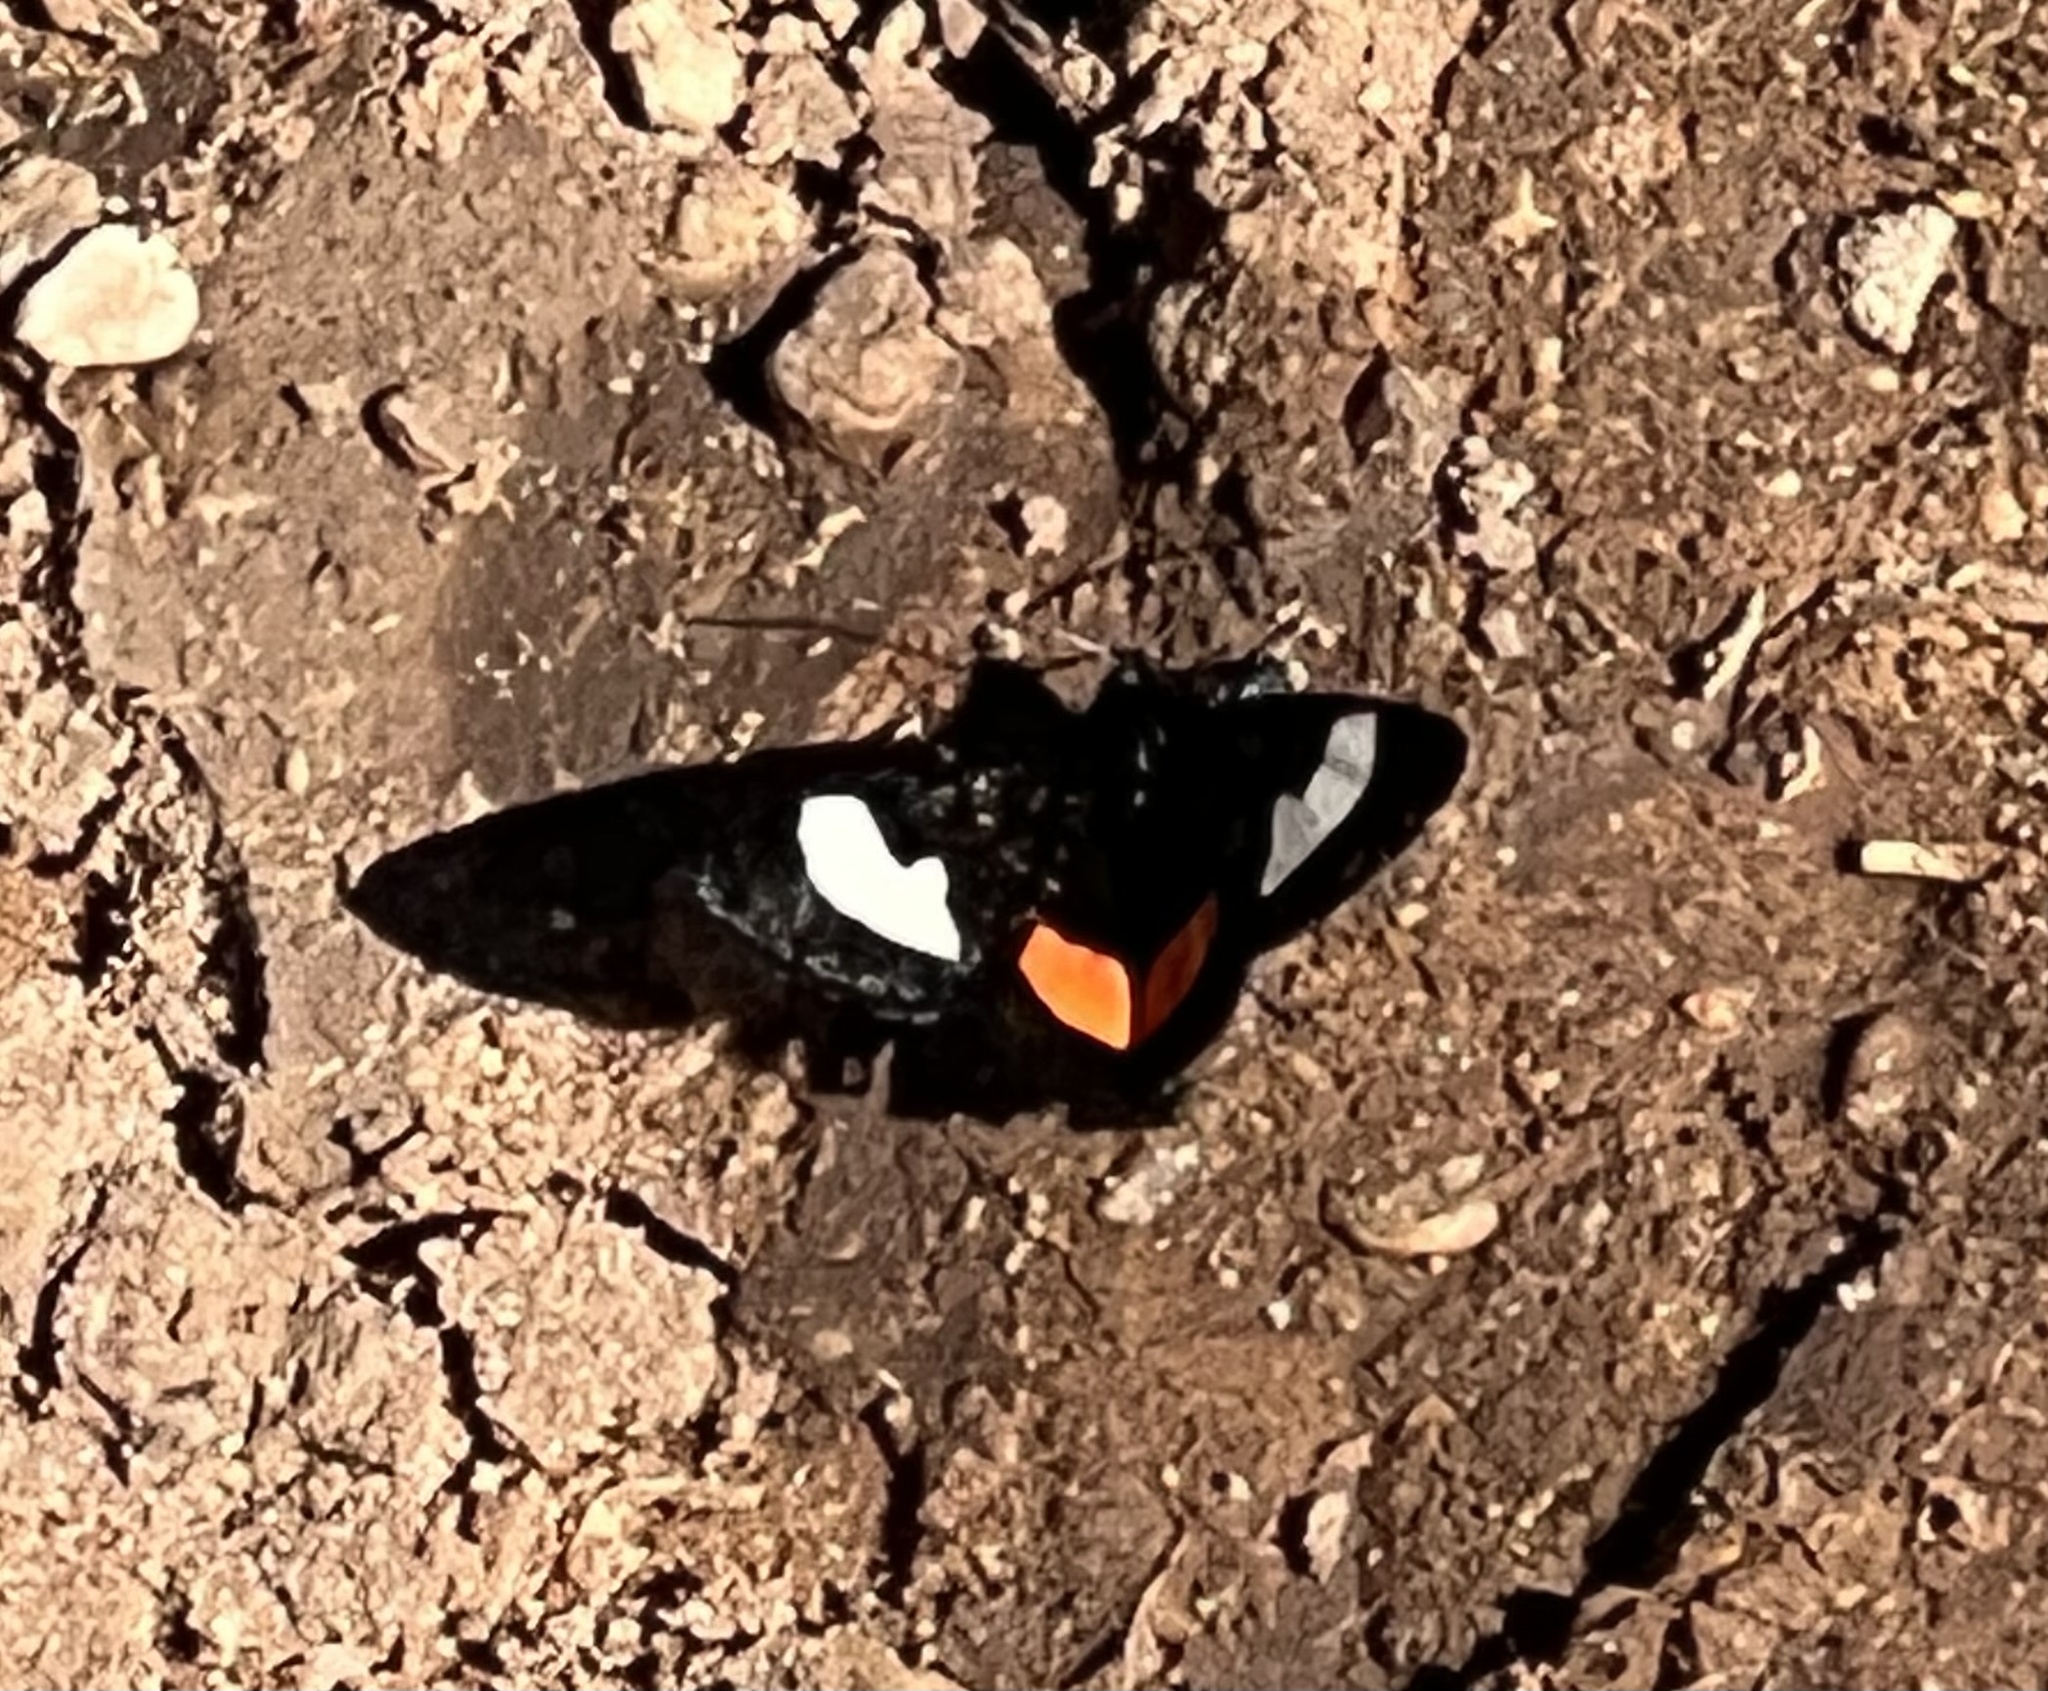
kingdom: Animalia
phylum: Arthropoda
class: Insecta
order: Lepidoptera
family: Noctuidae
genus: Psychomorpha
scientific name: Psychomorpha epimenis
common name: Grapevine epimenis moth
